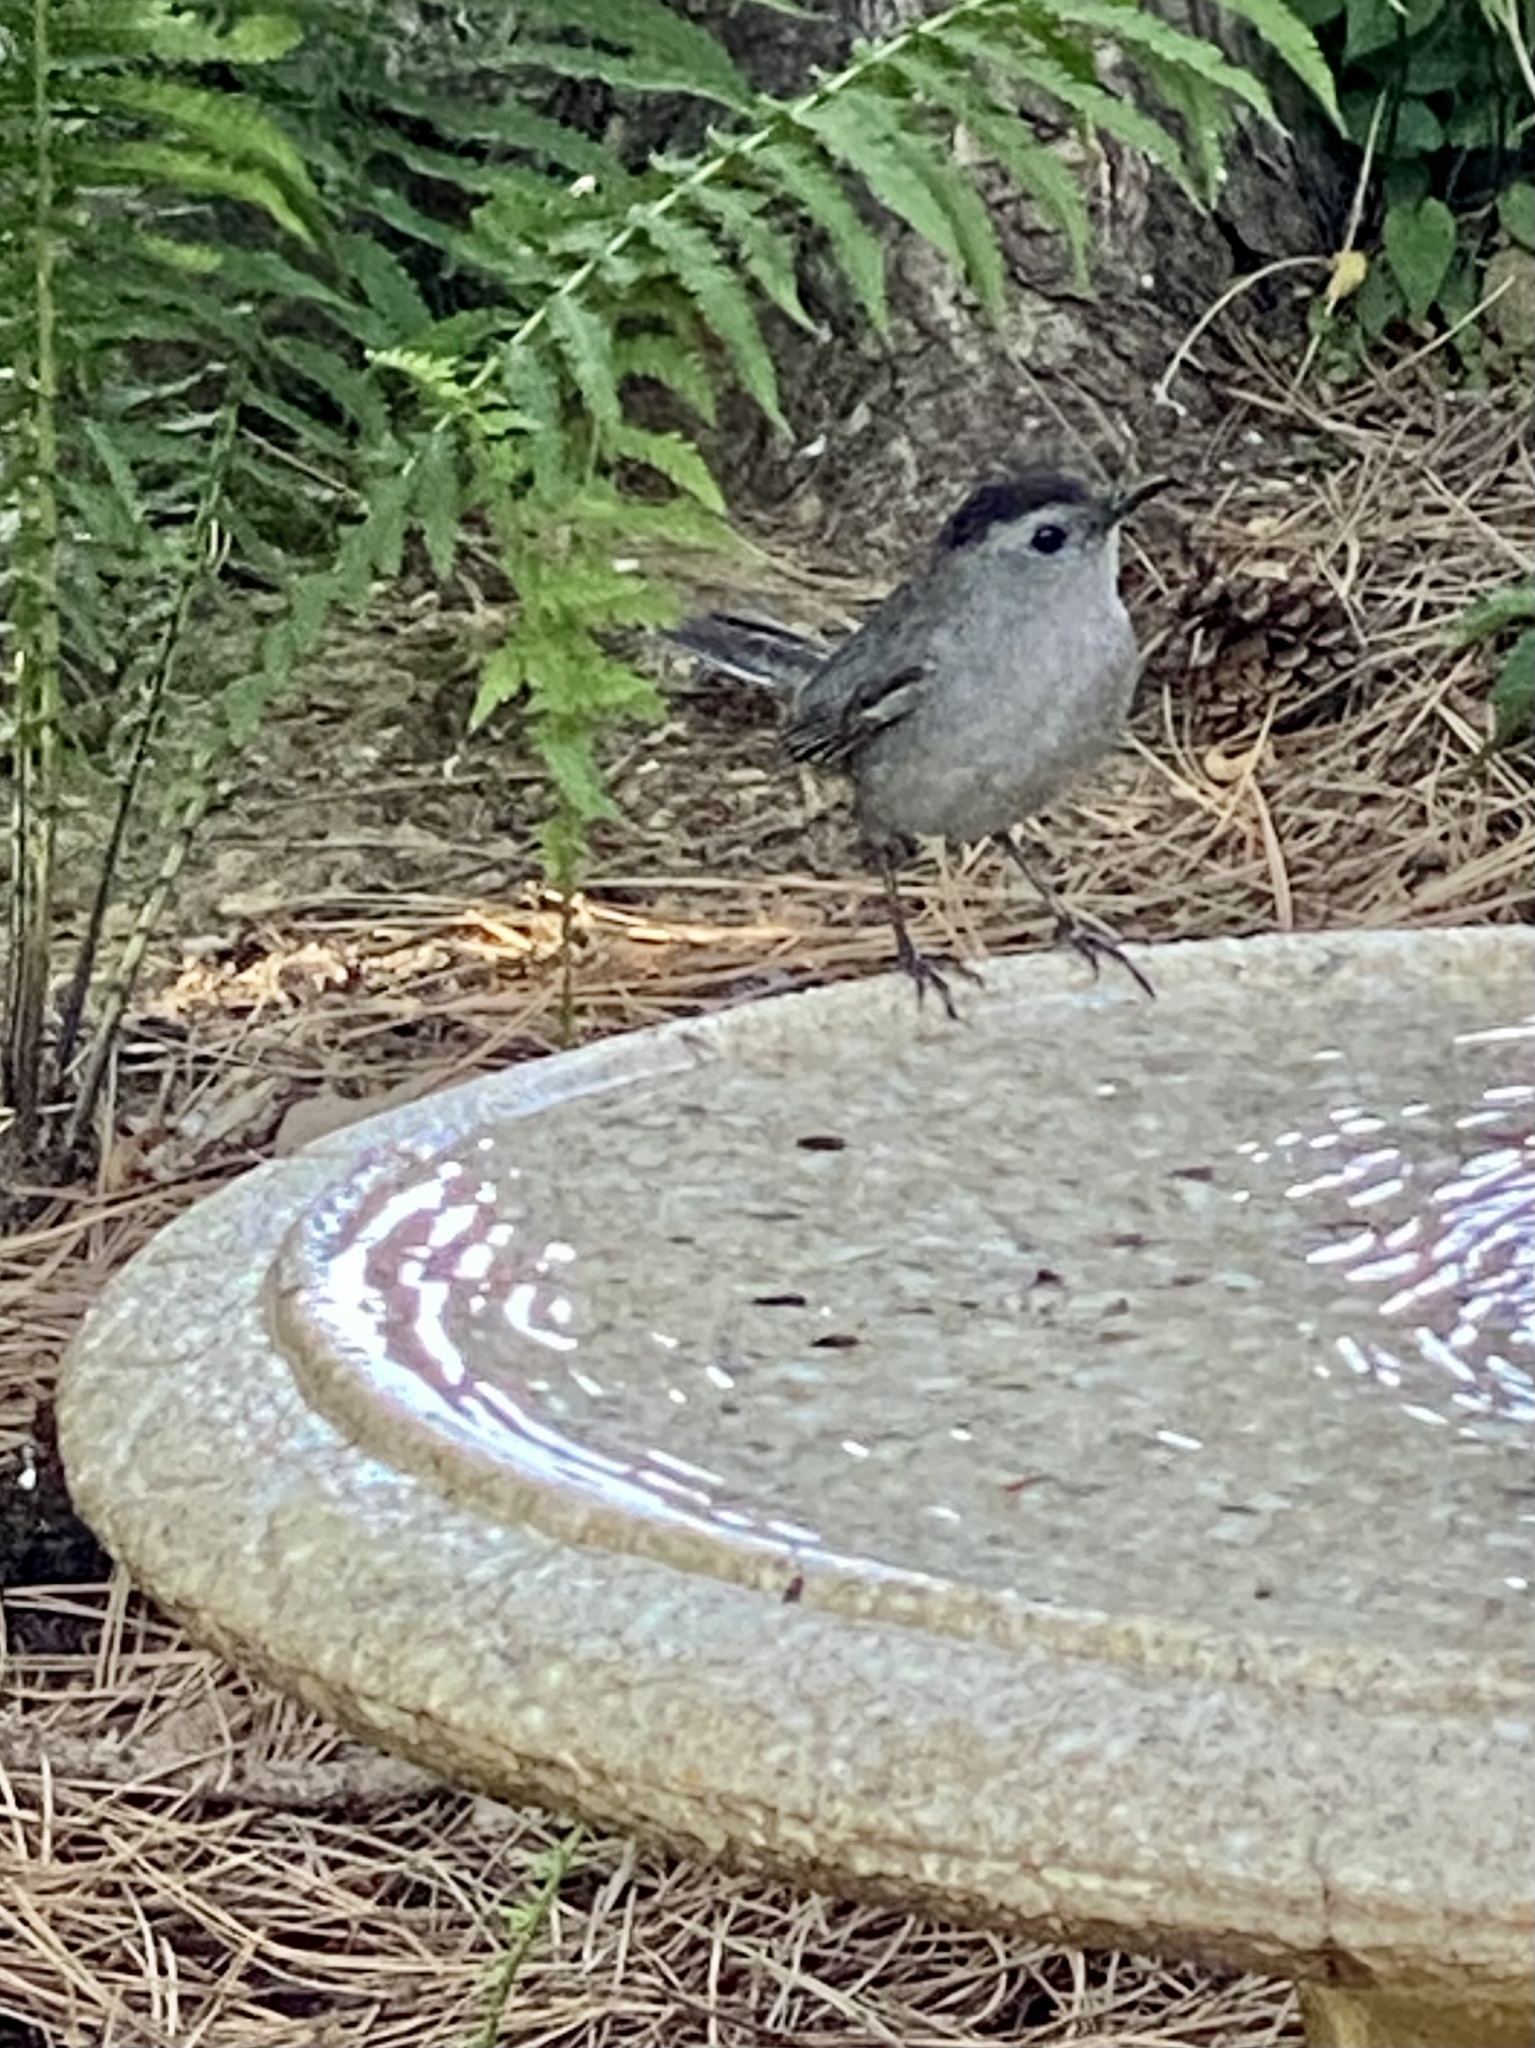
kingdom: Animalia
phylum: Chordata
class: Aves
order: Passeriformes
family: Mimidae
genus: Dumetella
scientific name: Dumetella carolinensis
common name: Gray catbird
